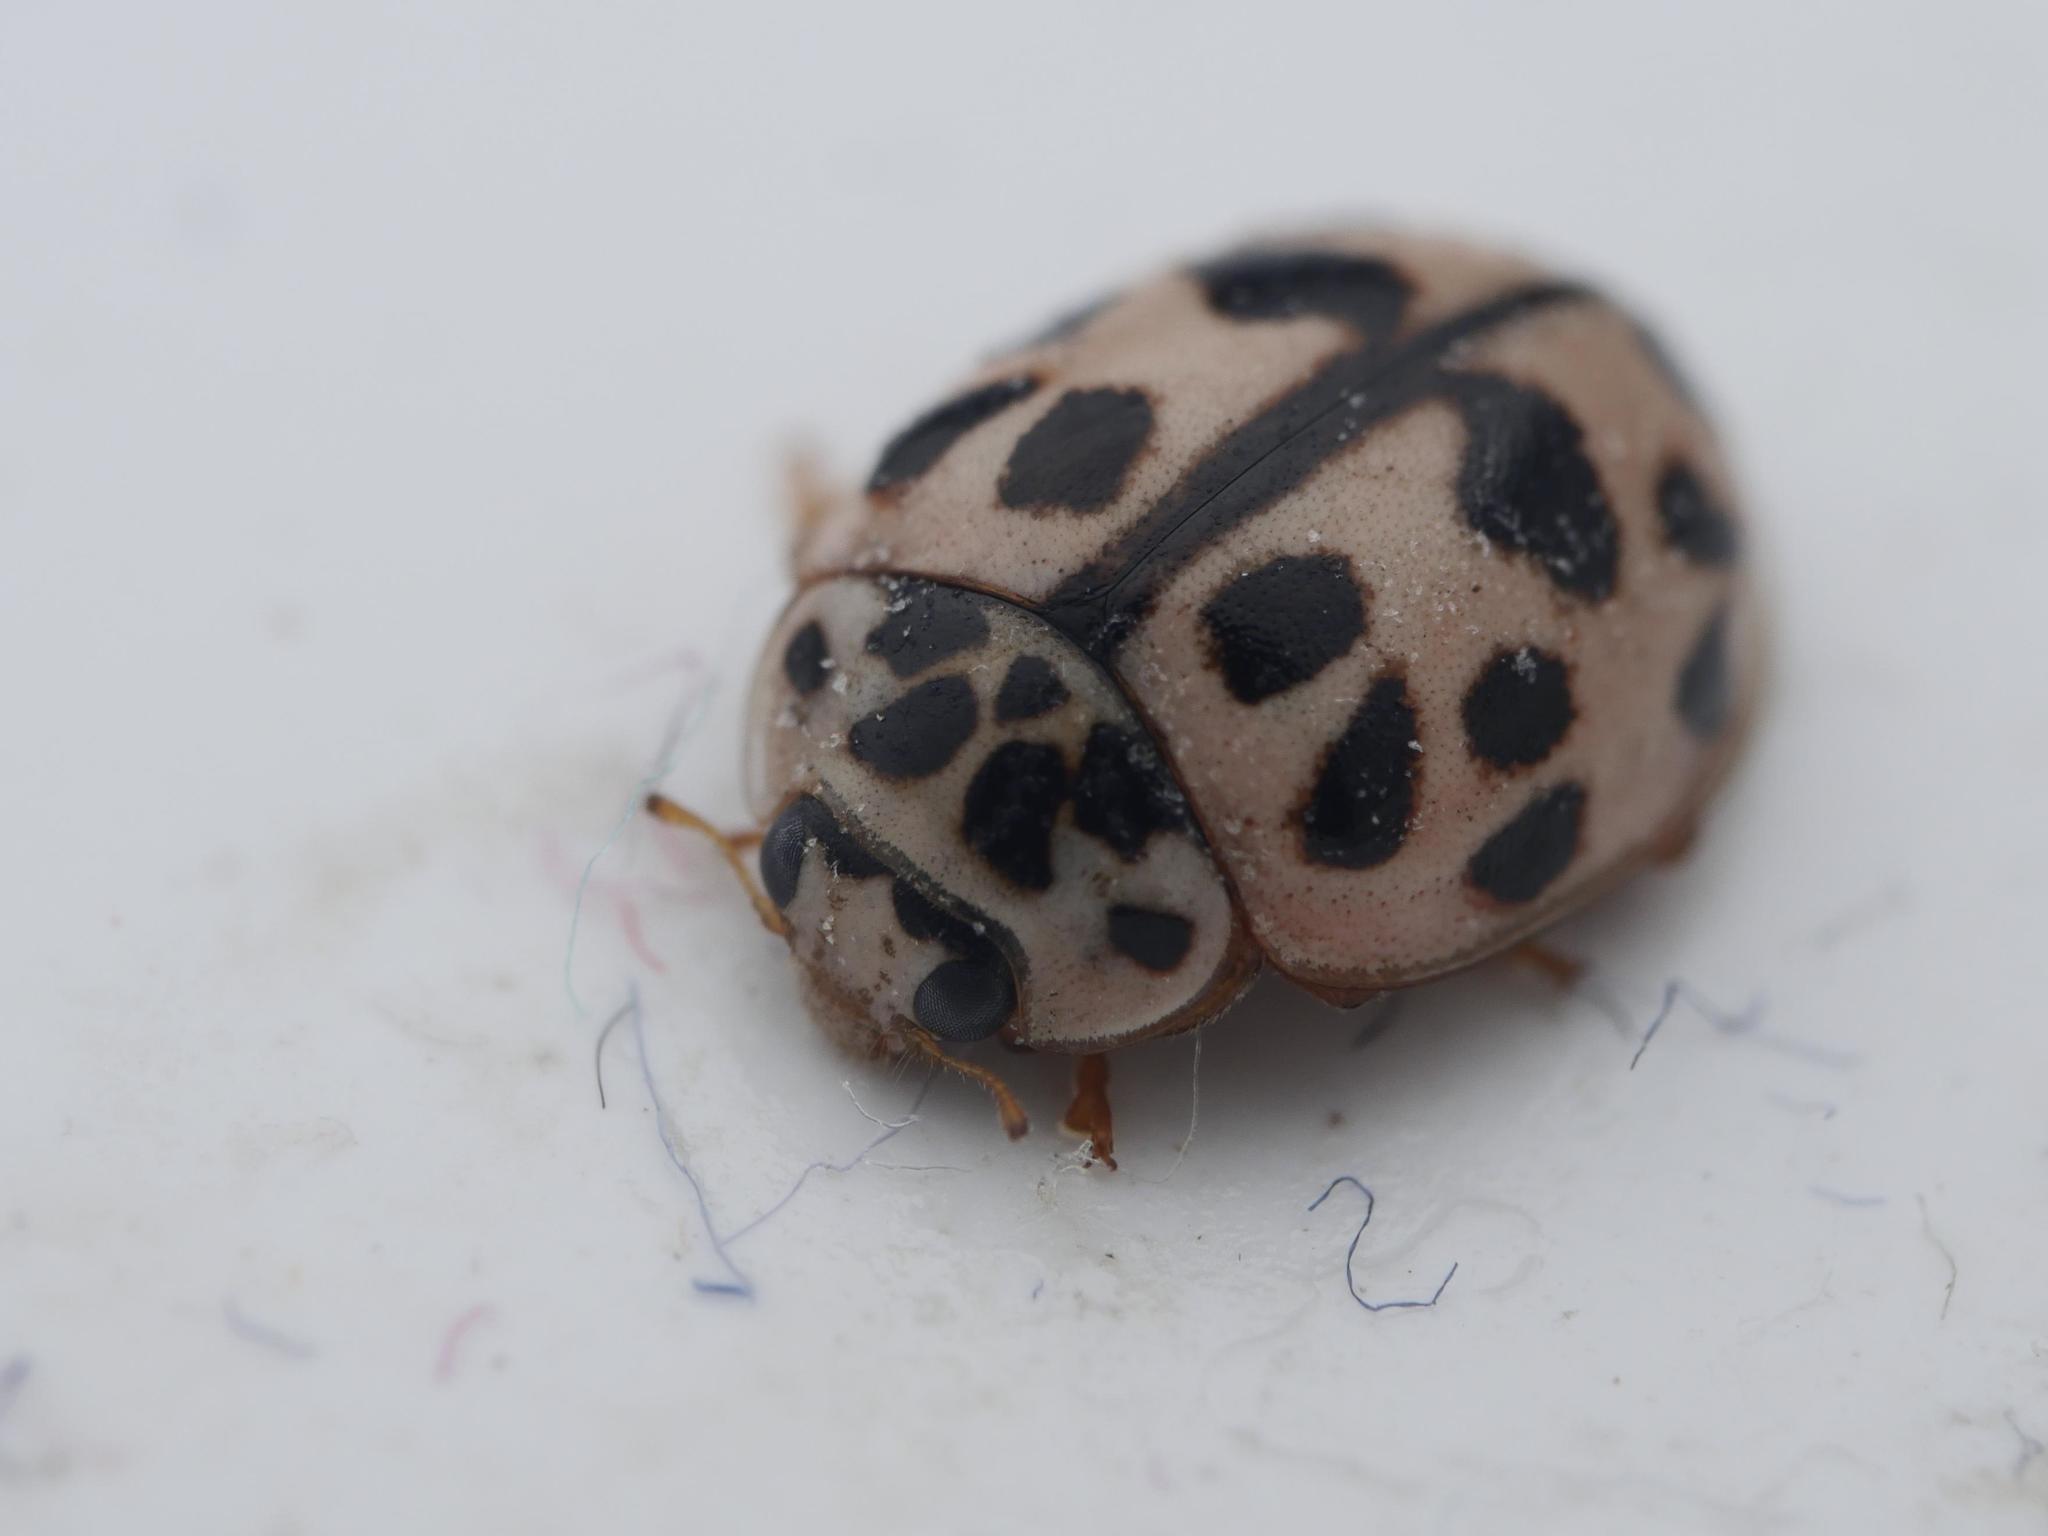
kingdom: Animalia
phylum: Arthropoda
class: Insecta
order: Coleoptera
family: Coccinellidae
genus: Oenopia
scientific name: Oenopia conglobata
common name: Ladybird beetle
